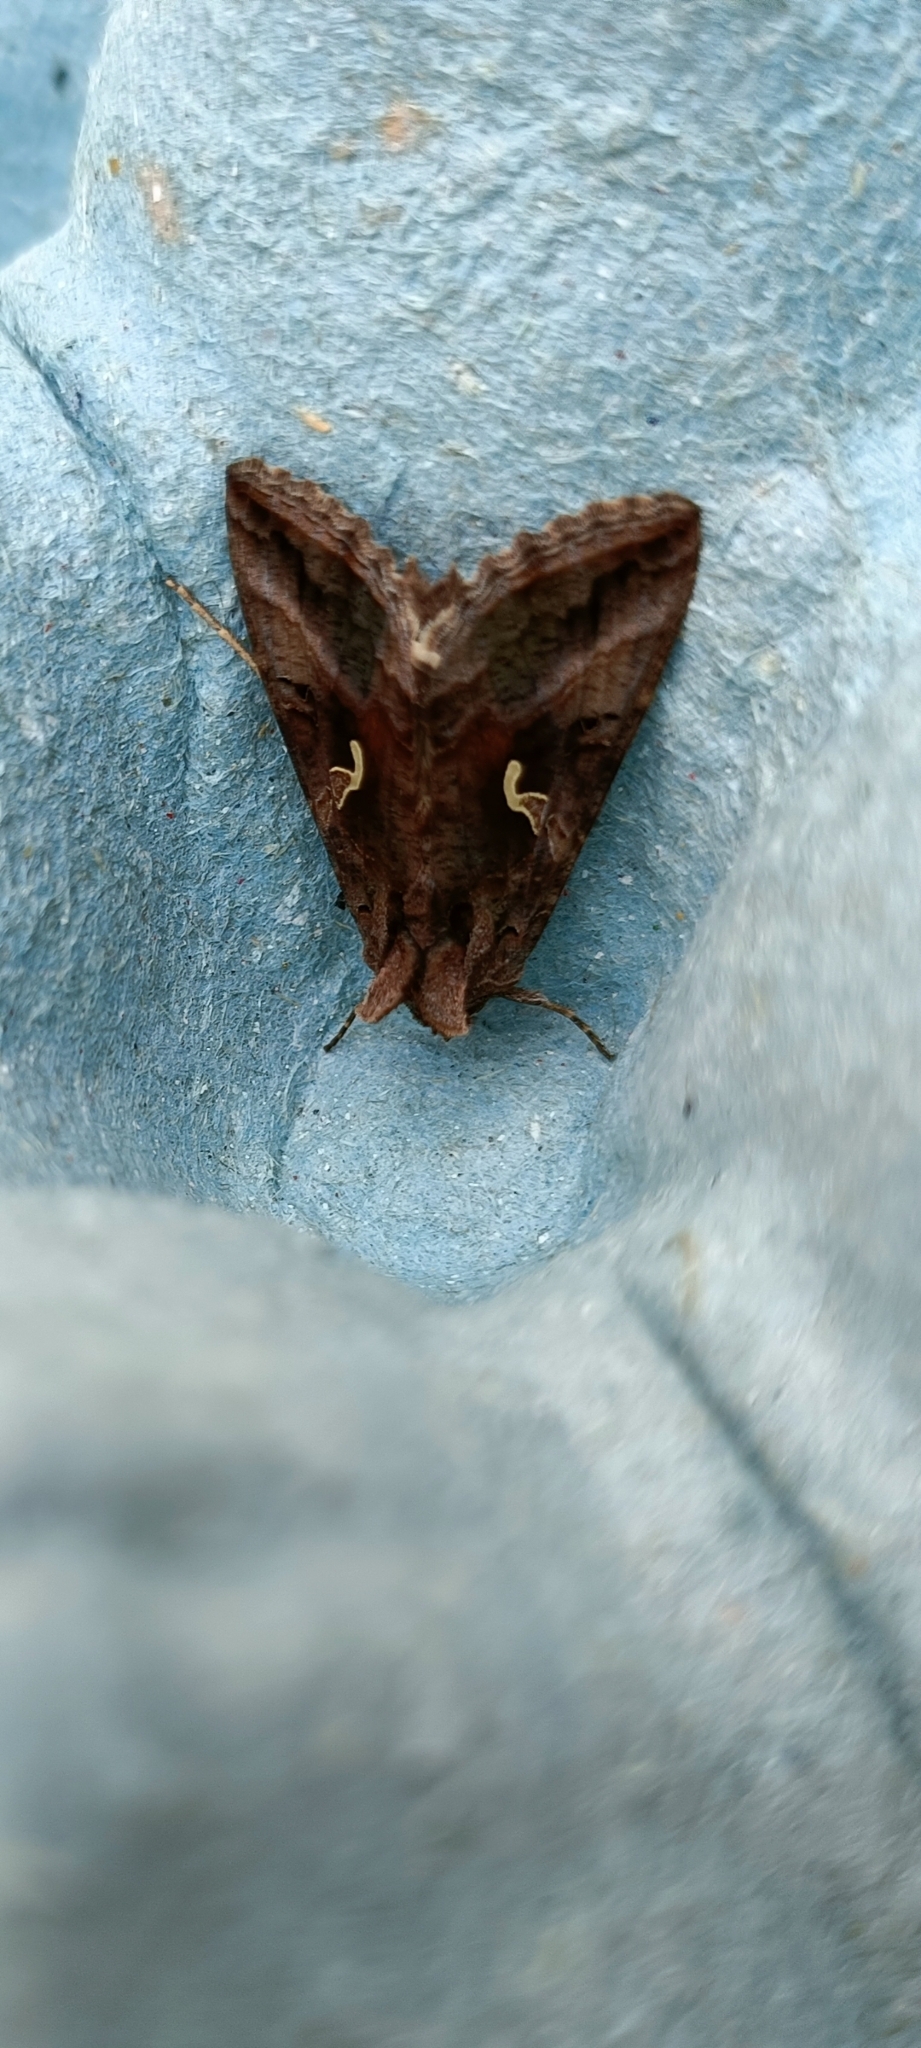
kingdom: Animalia
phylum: Arthropoda
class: Insecta
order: Lepidoptera
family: Noctuidae
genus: Autographa
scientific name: Autographa gamma
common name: Silver y
